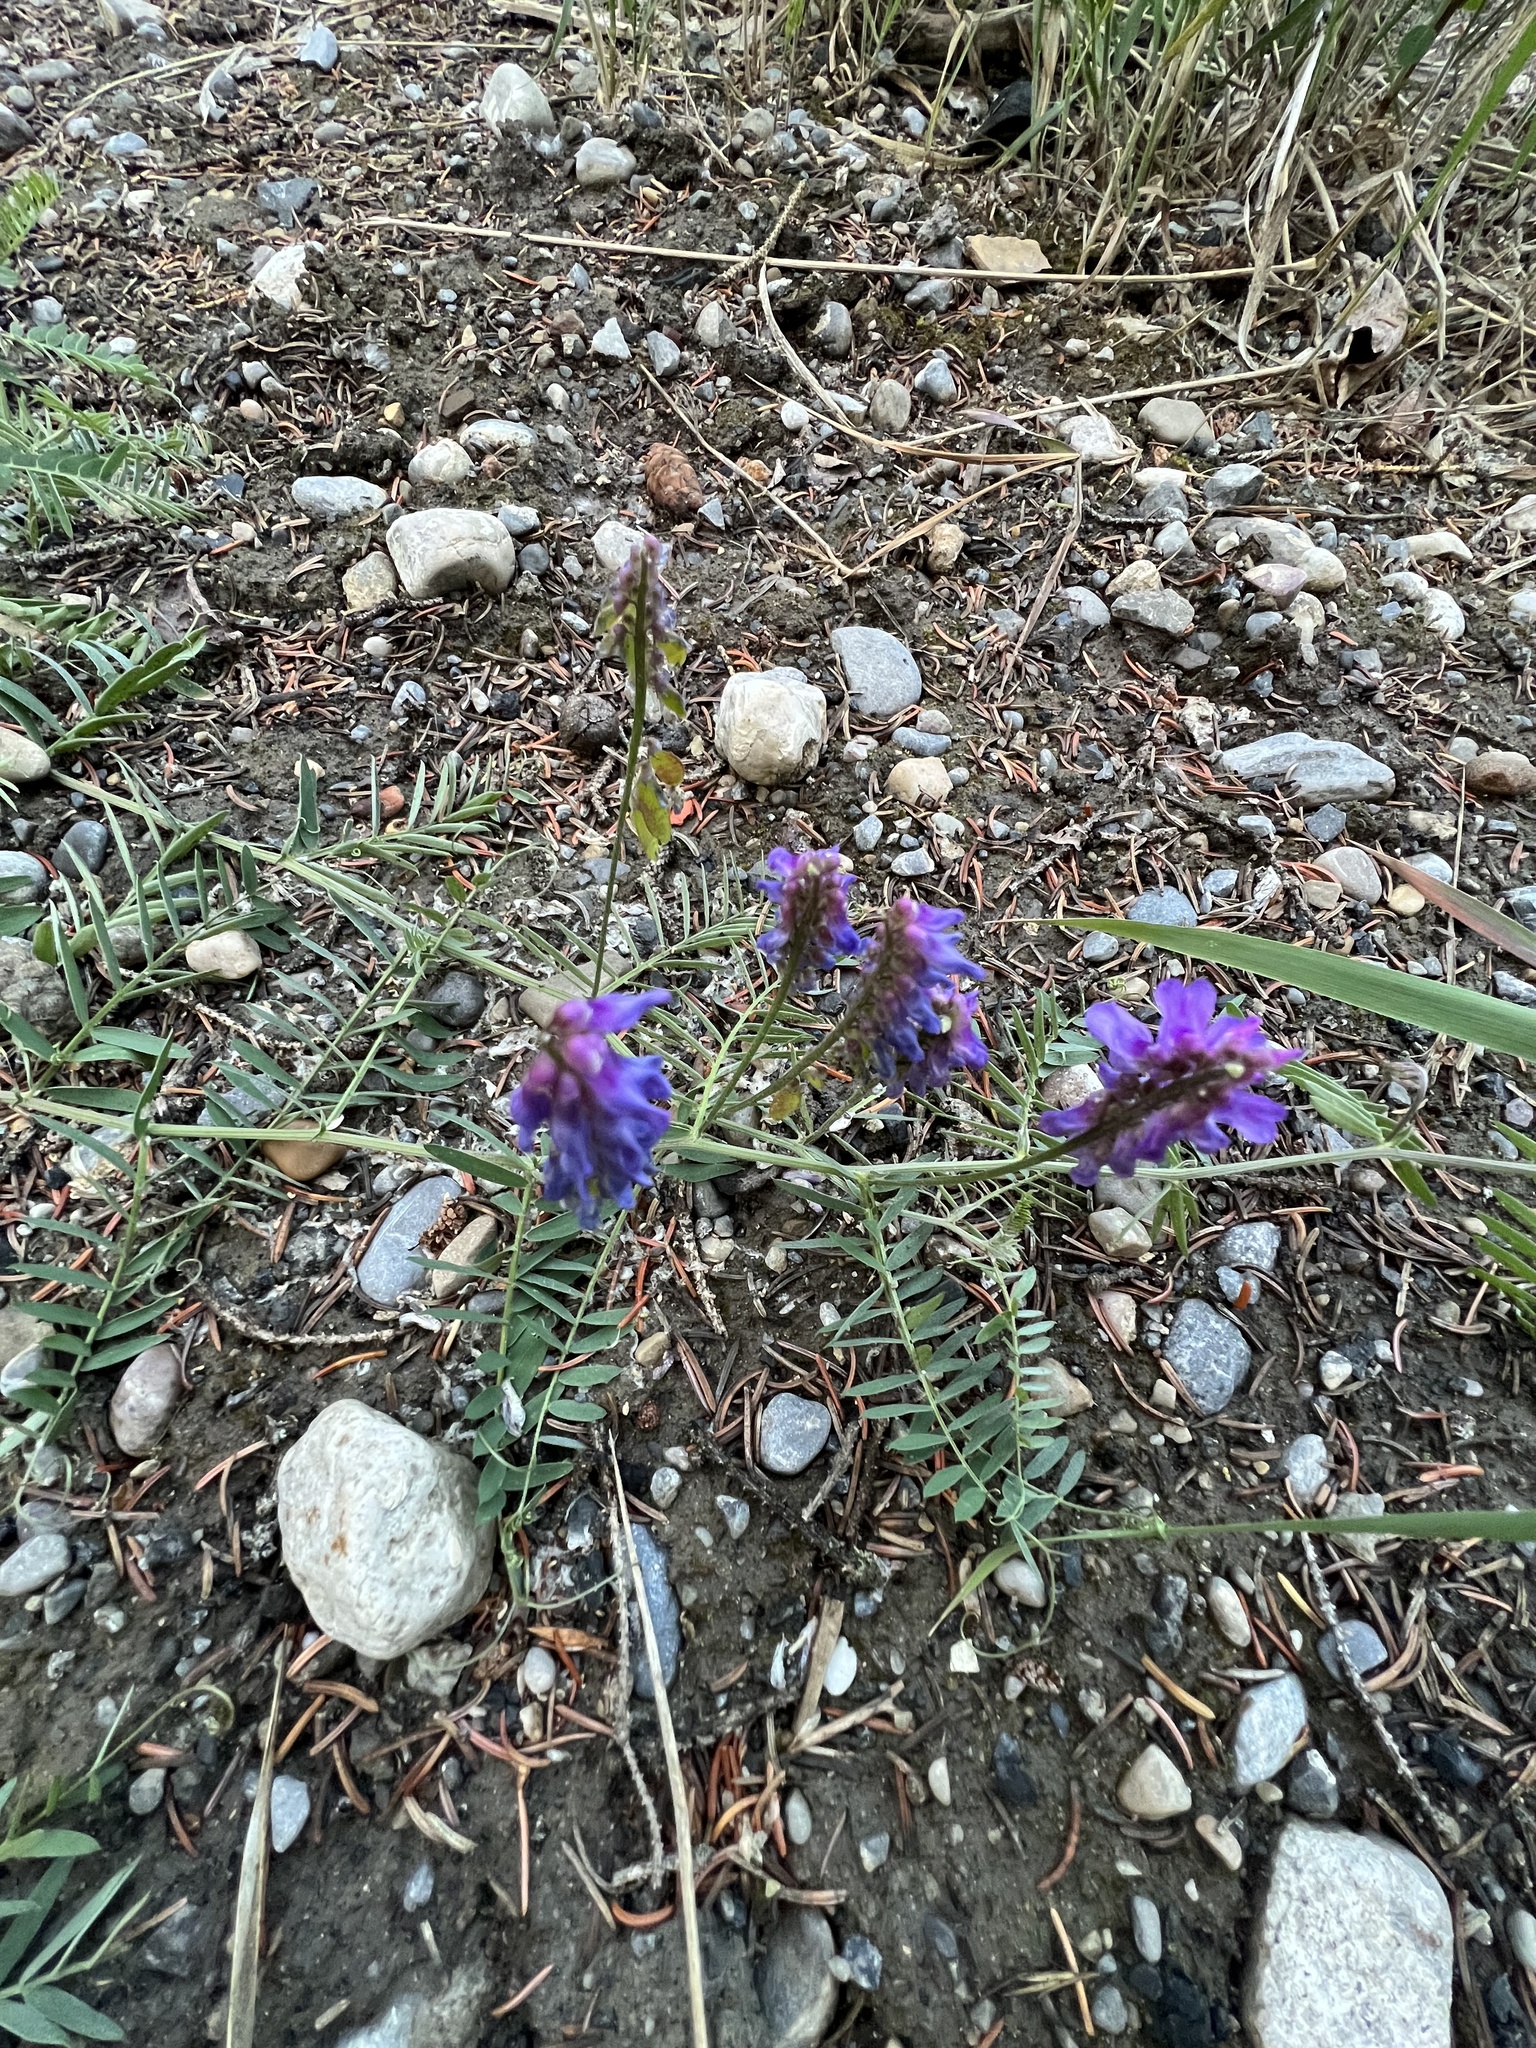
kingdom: Plantae
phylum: Tracheophyta
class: Magnoliopsida
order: Fabales
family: Fabaceae
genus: Vicia
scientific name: Vicia cracca
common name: Bird vetch
